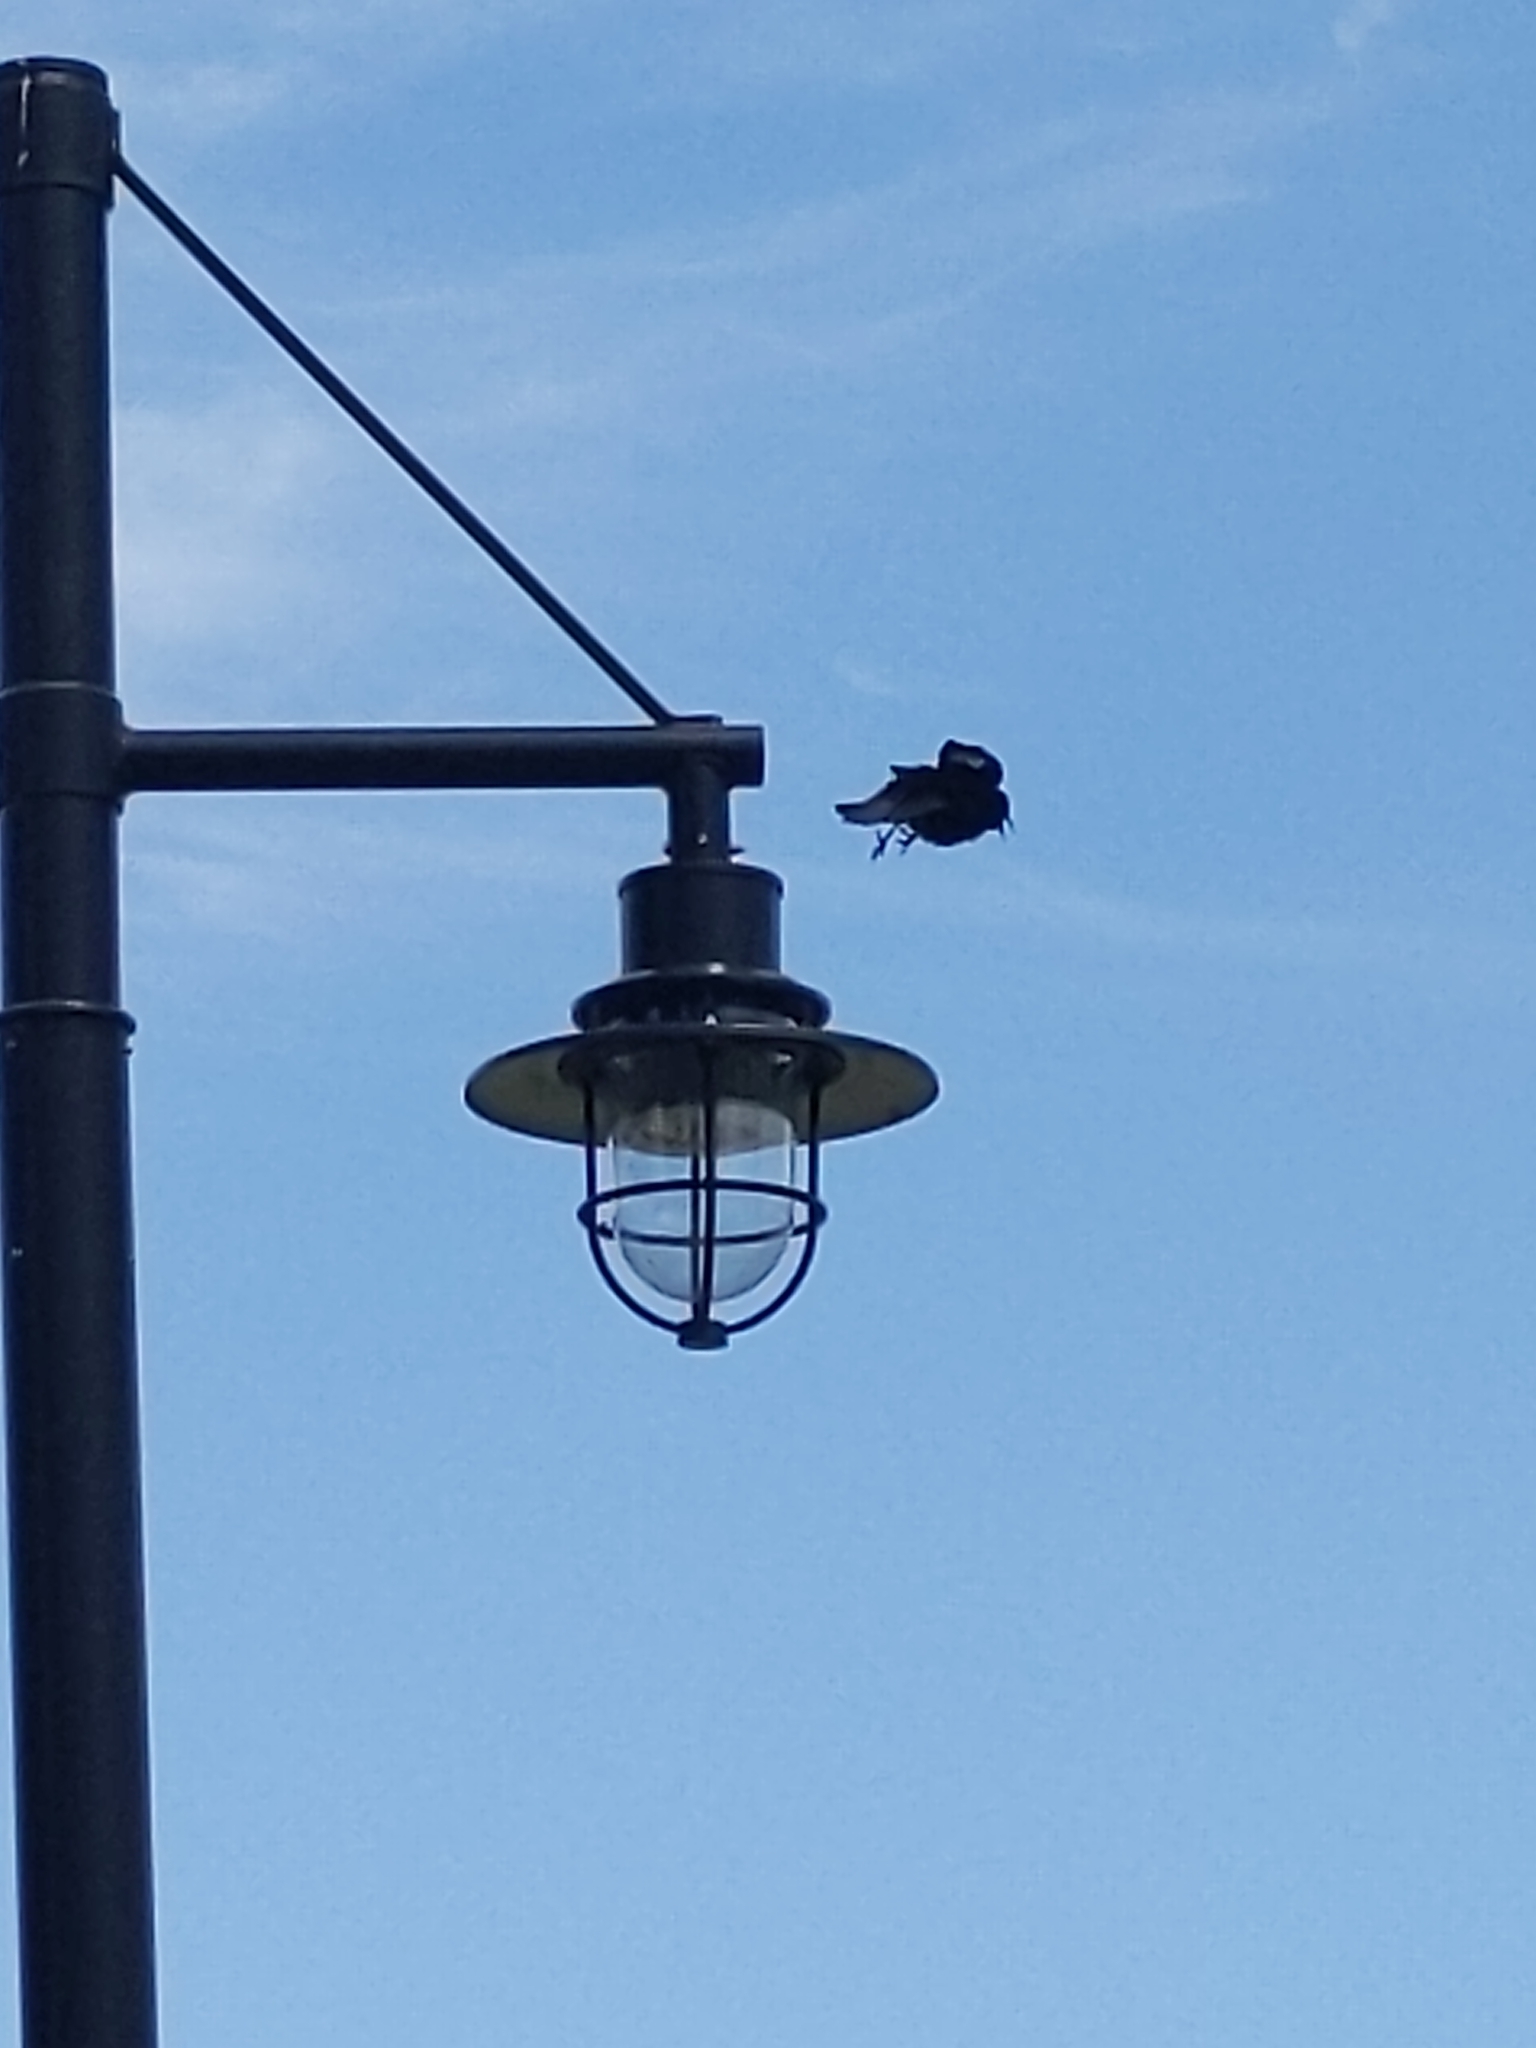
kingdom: Animalia
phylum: Chordata
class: Aves
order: Passeriformes
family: Icteridae
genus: Agelaius
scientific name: Agelaius phoeniceus
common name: Red-winged blackbird
